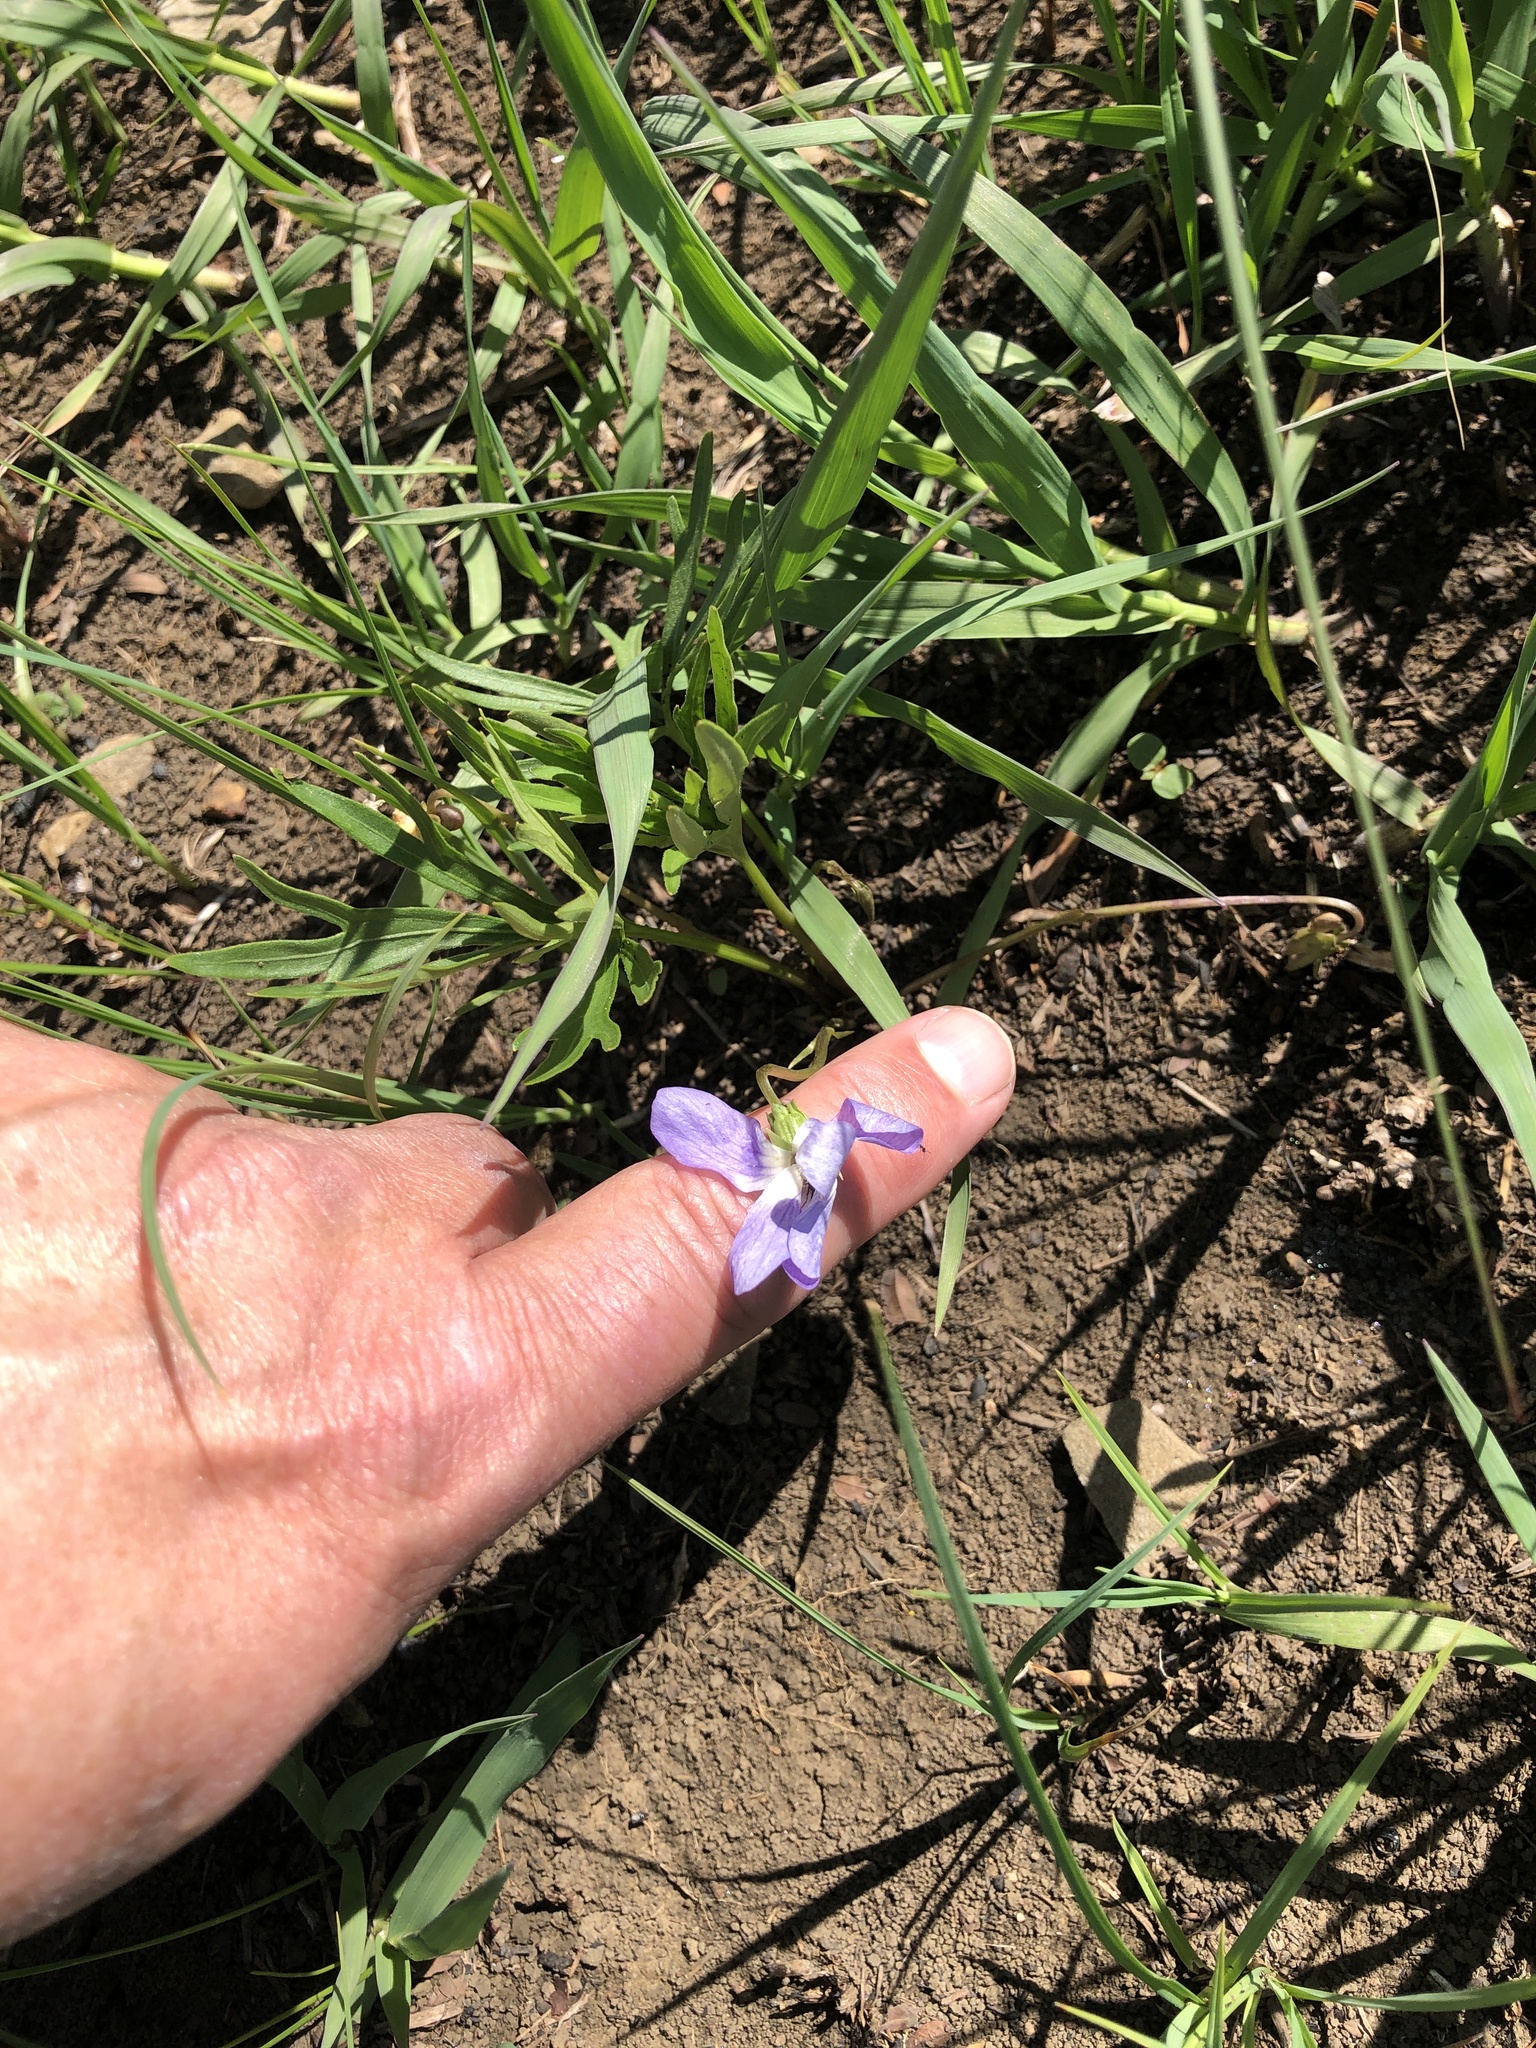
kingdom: Plantae
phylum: Tracheophyta
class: Magnoliopsida
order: Malpighiales
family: Violaceae
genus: Viola
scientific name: Viola pedatifida
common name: Prairie violet
